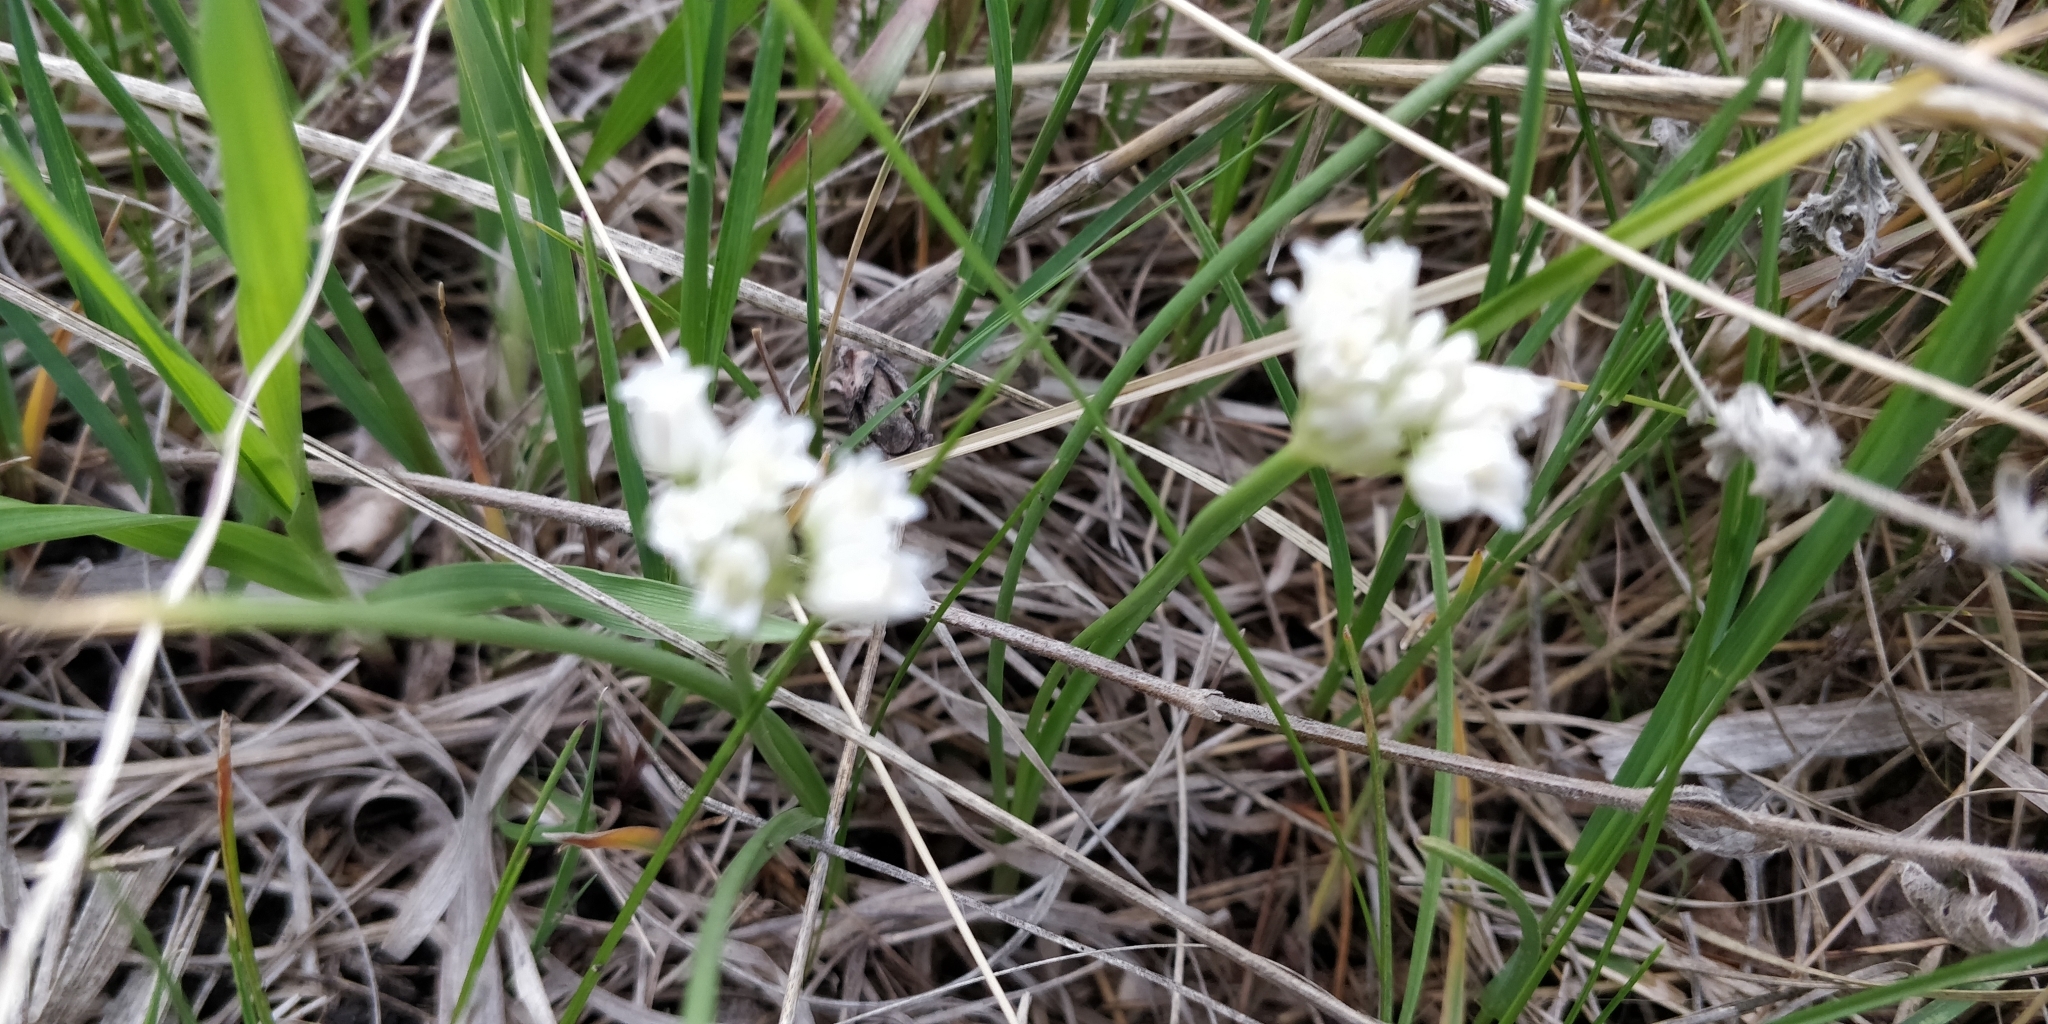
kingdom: Plantae
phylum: Tracheophyta
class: Liliopsida
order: Asparagales
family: Amaryllidaceae
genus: Allium
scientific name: Allium textile
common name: Prairie onion
